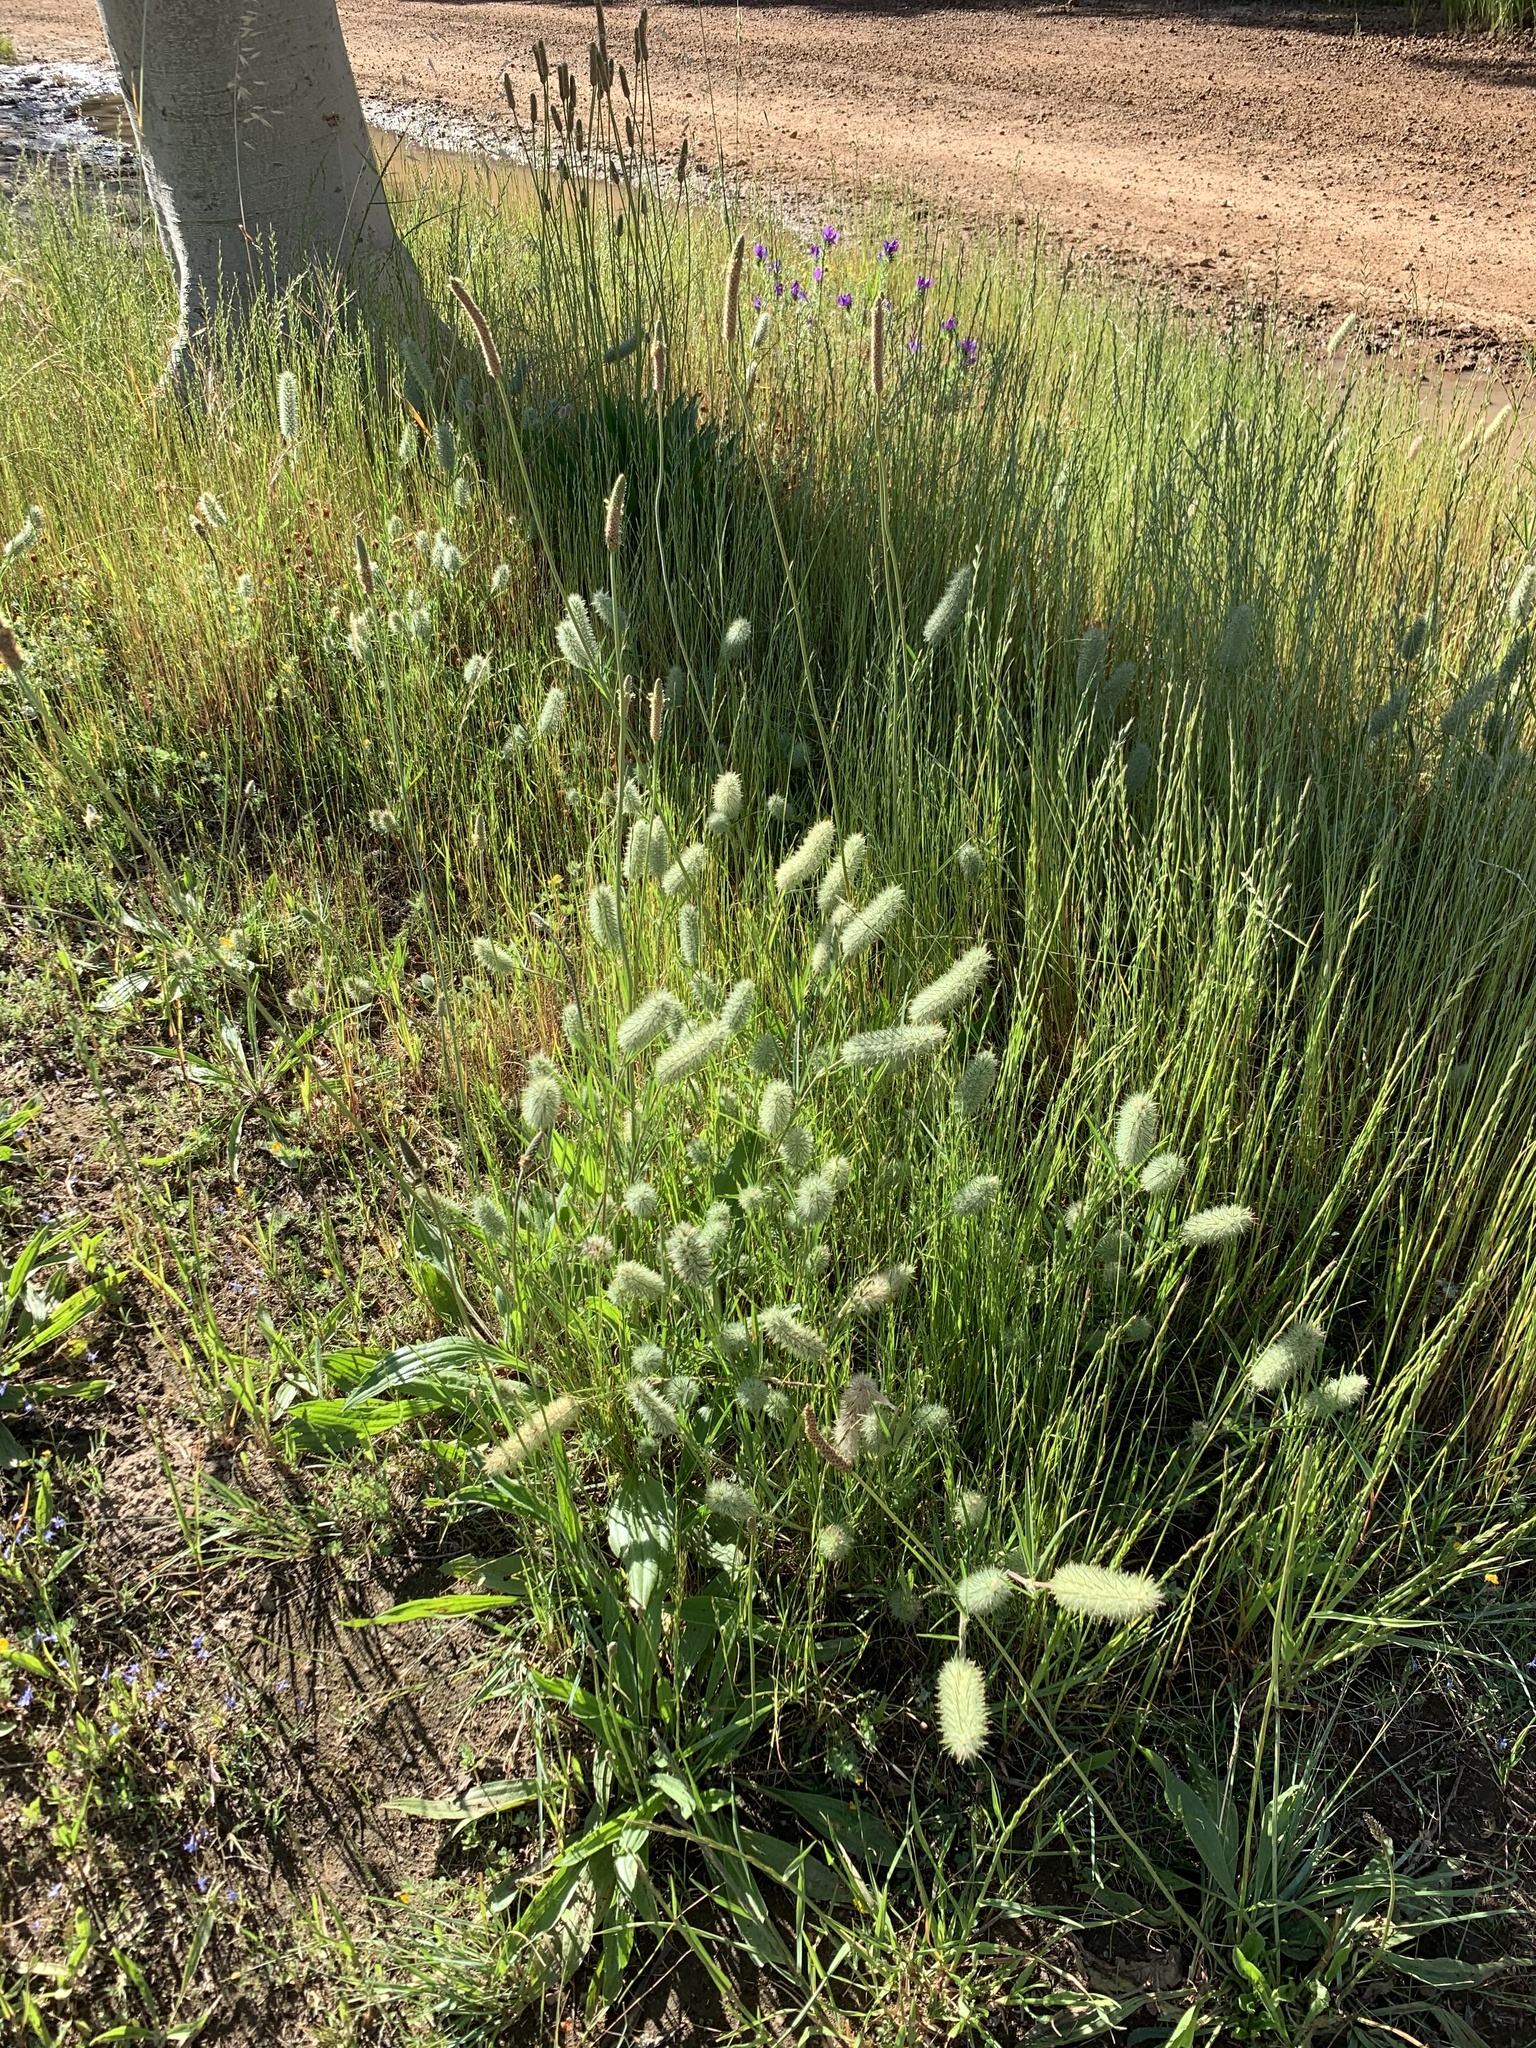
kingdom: Plantae
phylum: Tracheophyta
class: Magnoliopsida
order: Fabales
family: Fabaceae
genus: Trifolium
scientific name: Trifolium angustifolium
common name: Narrow clover
